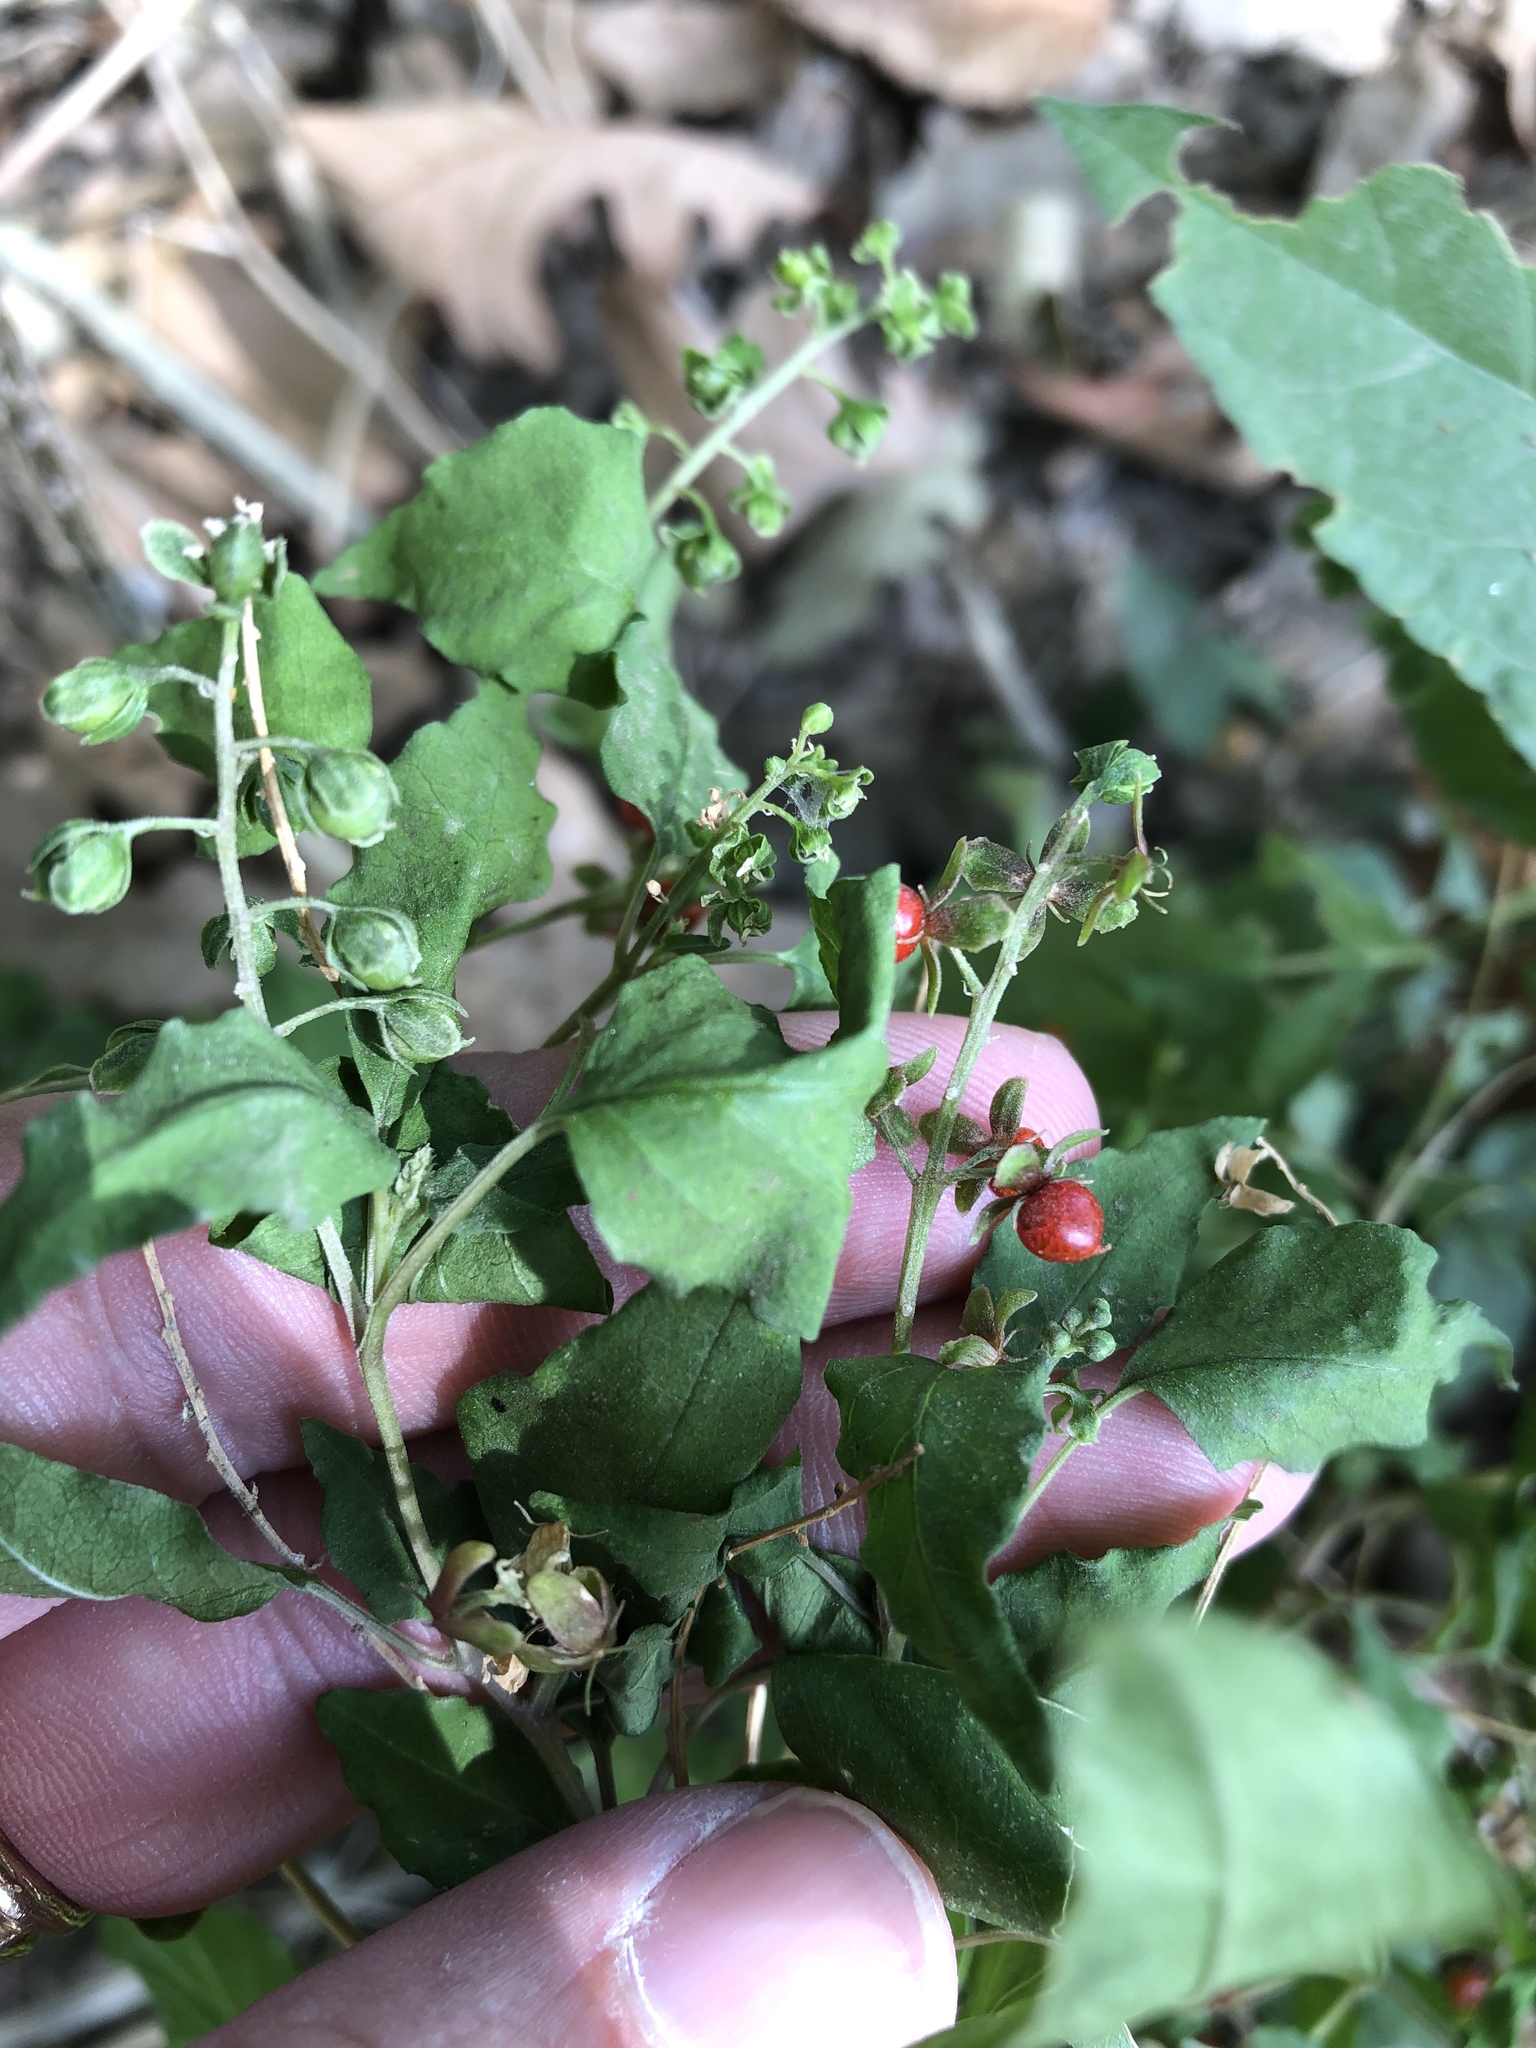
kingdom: Plantae
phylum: Tracheophyta
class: Magnoliopsida
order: Caryophyllales
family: Phytolaccaceae
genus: Rivina
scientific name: Rivina humilis
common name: Rougeplant
